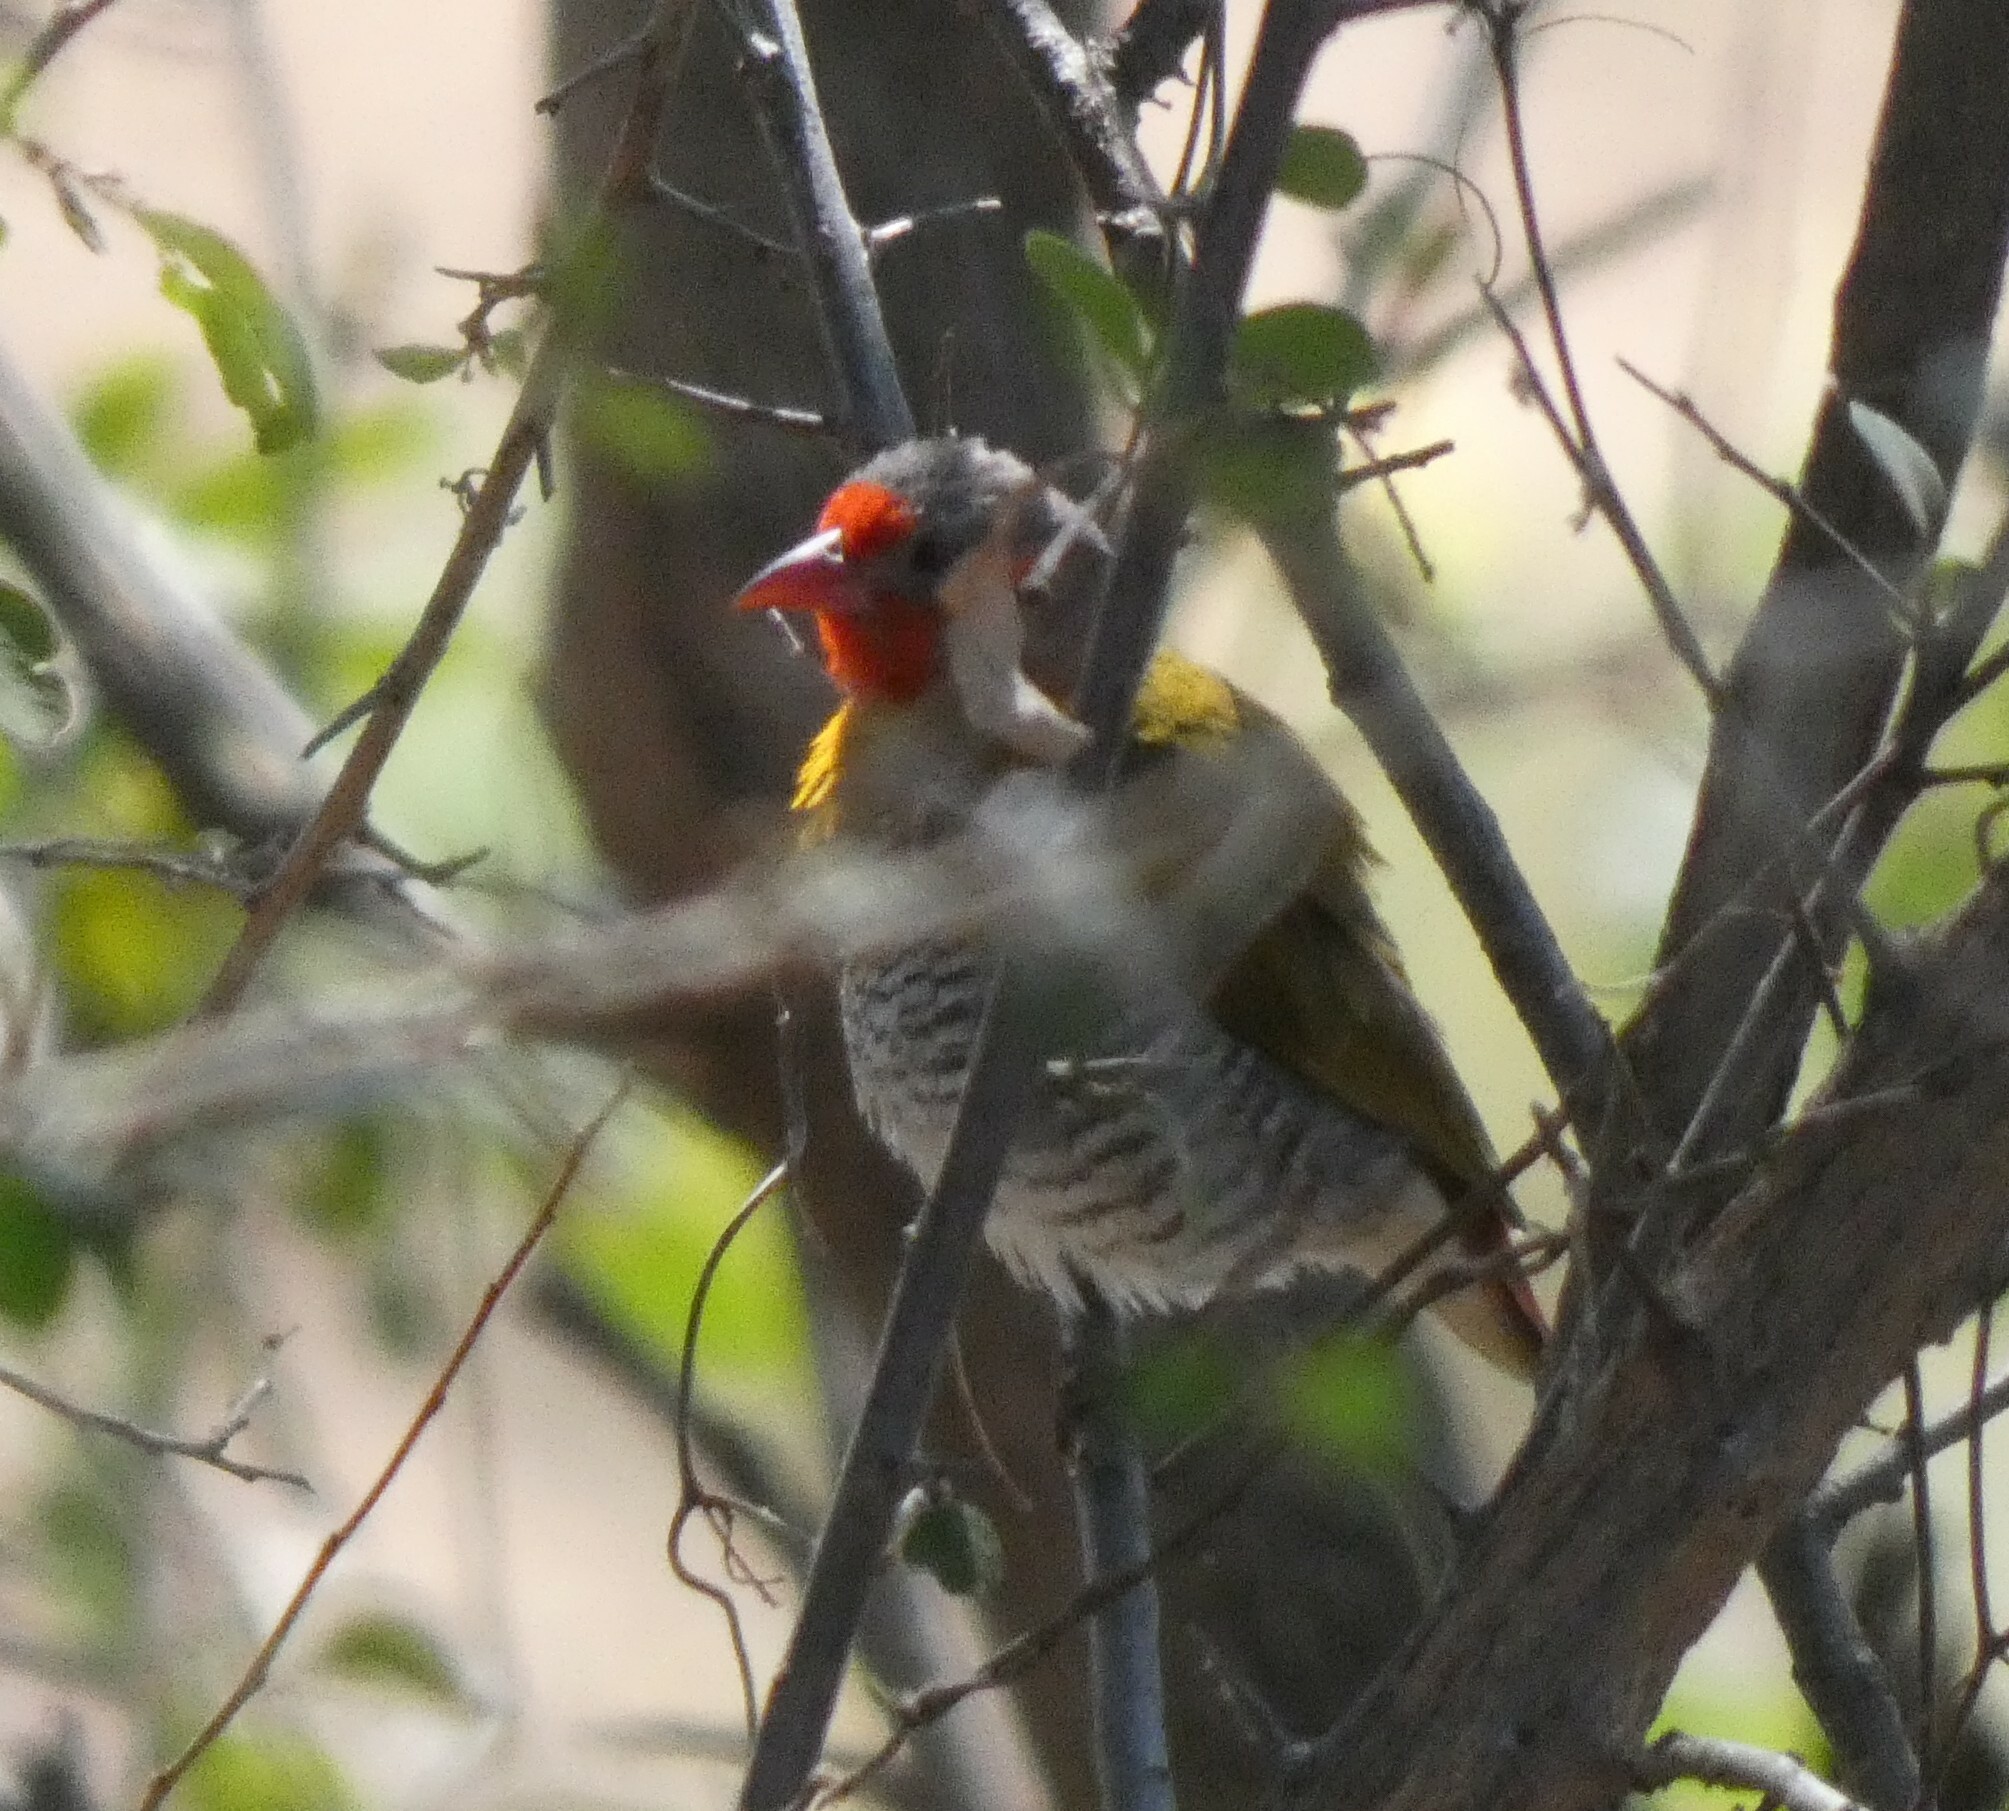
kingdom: Animalia
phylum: Chordata
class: Aves
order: Passeriformes
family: Estrildidae
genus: Pytilia
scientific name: Pytilia melba
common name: Green-winged pytilia
